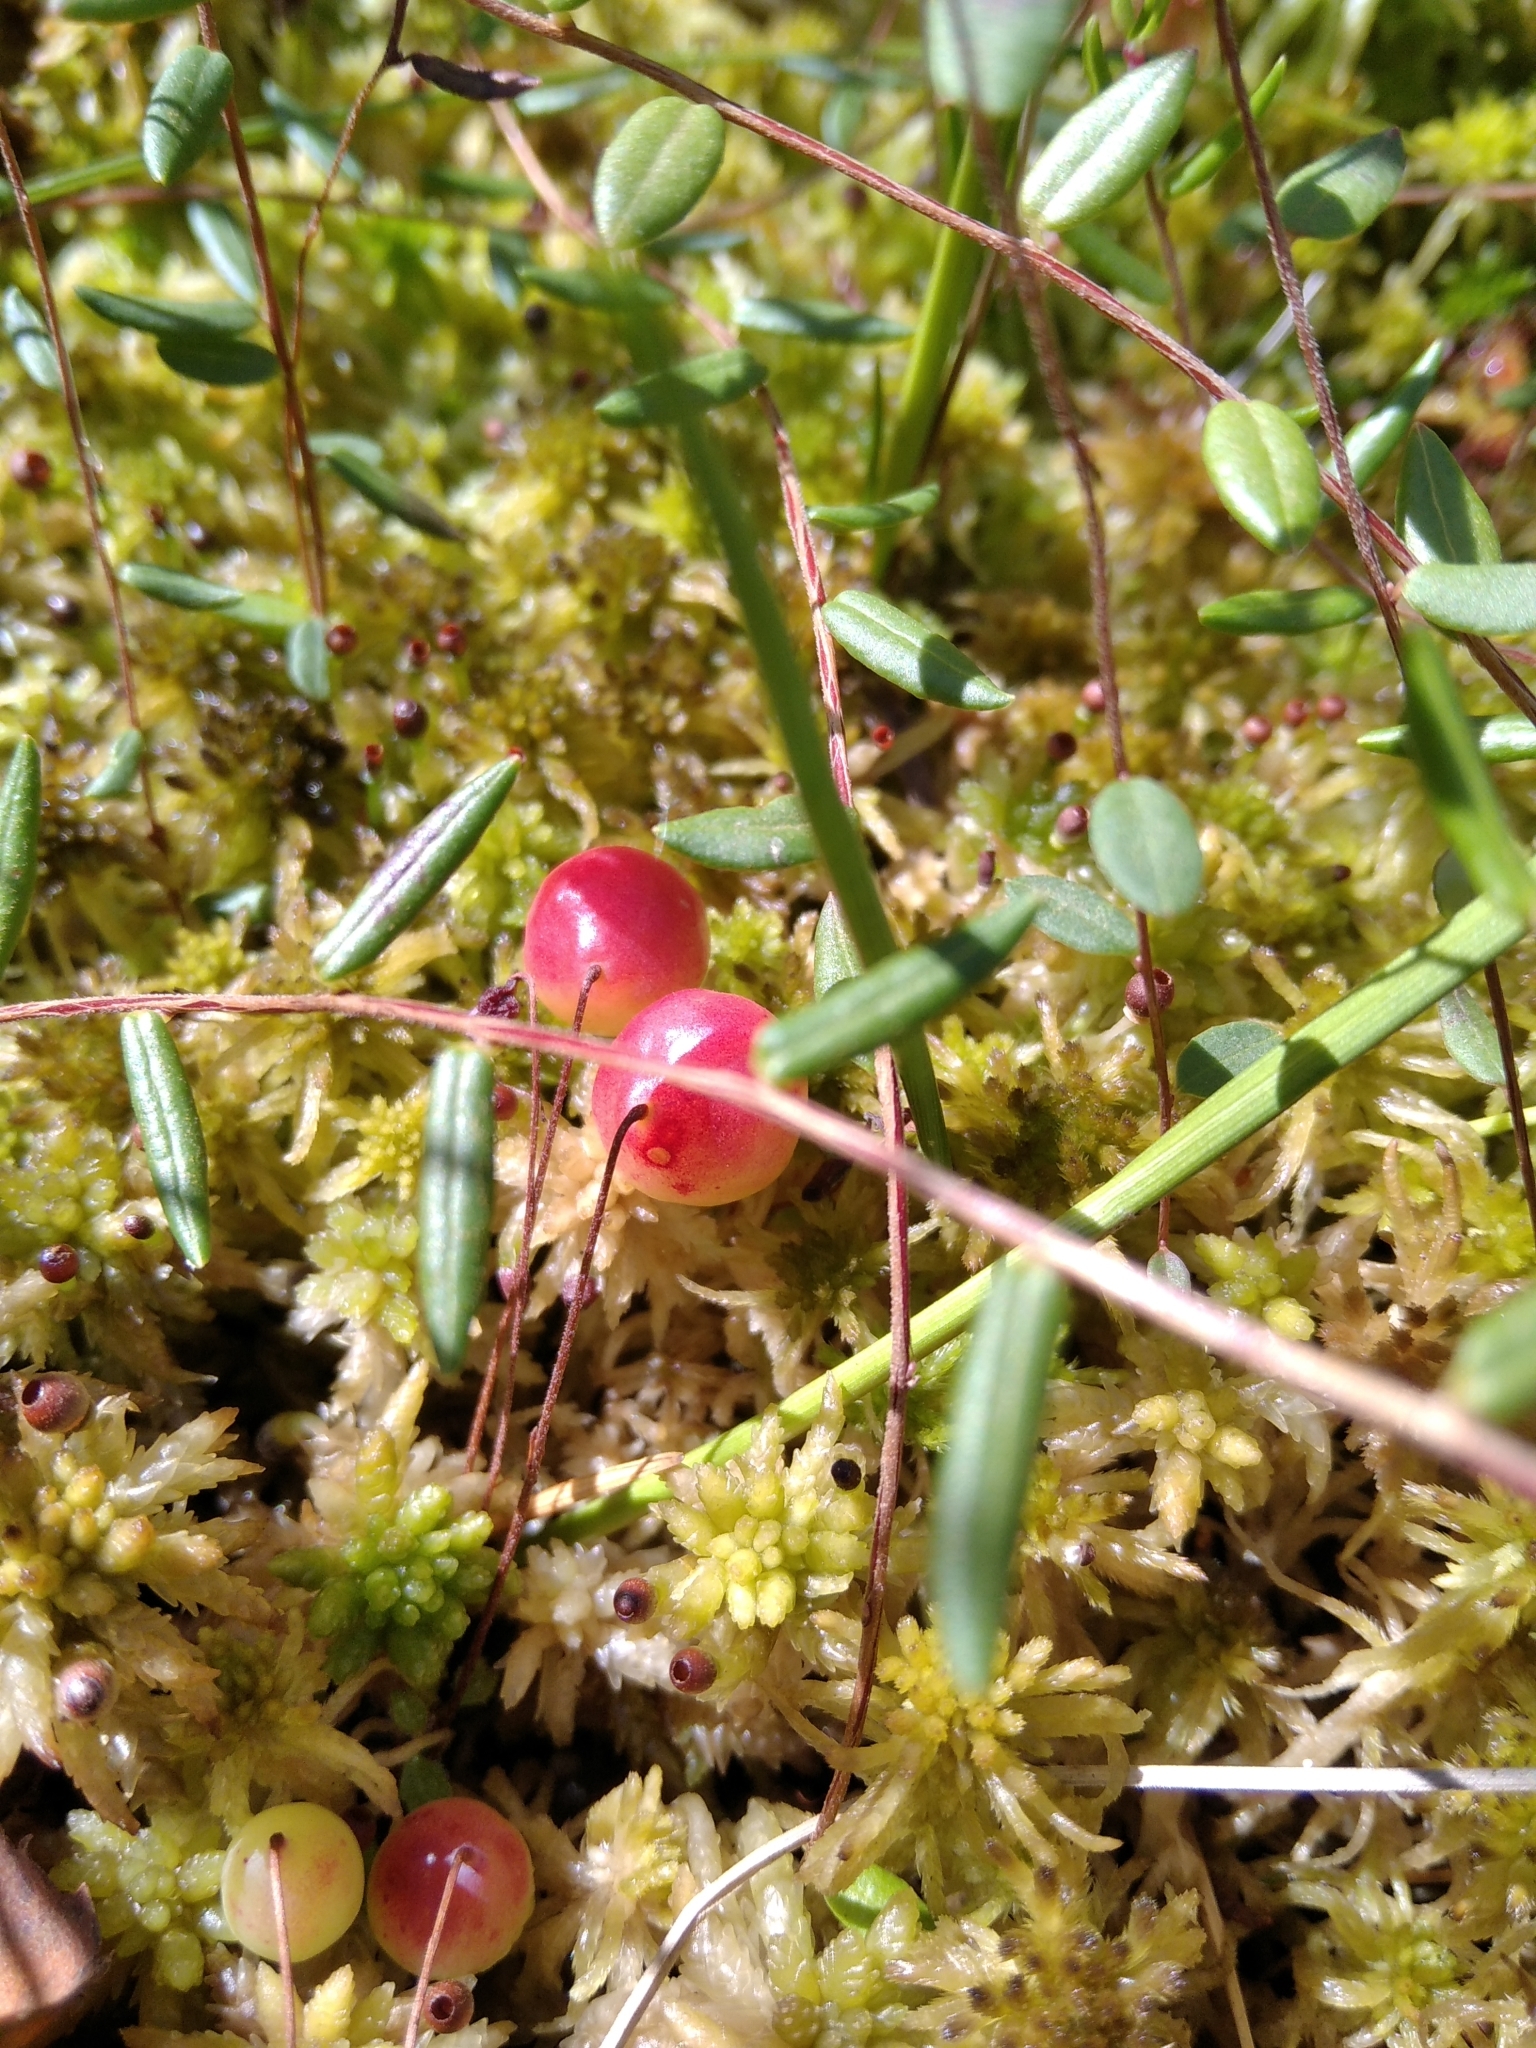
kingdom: Plantae
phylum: Tracheophyta
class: Magnoliopsida
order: Ericales
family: Ericaceae
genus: Vaccinium
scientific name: Vaccinium oxycoccos
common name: Cranberry
